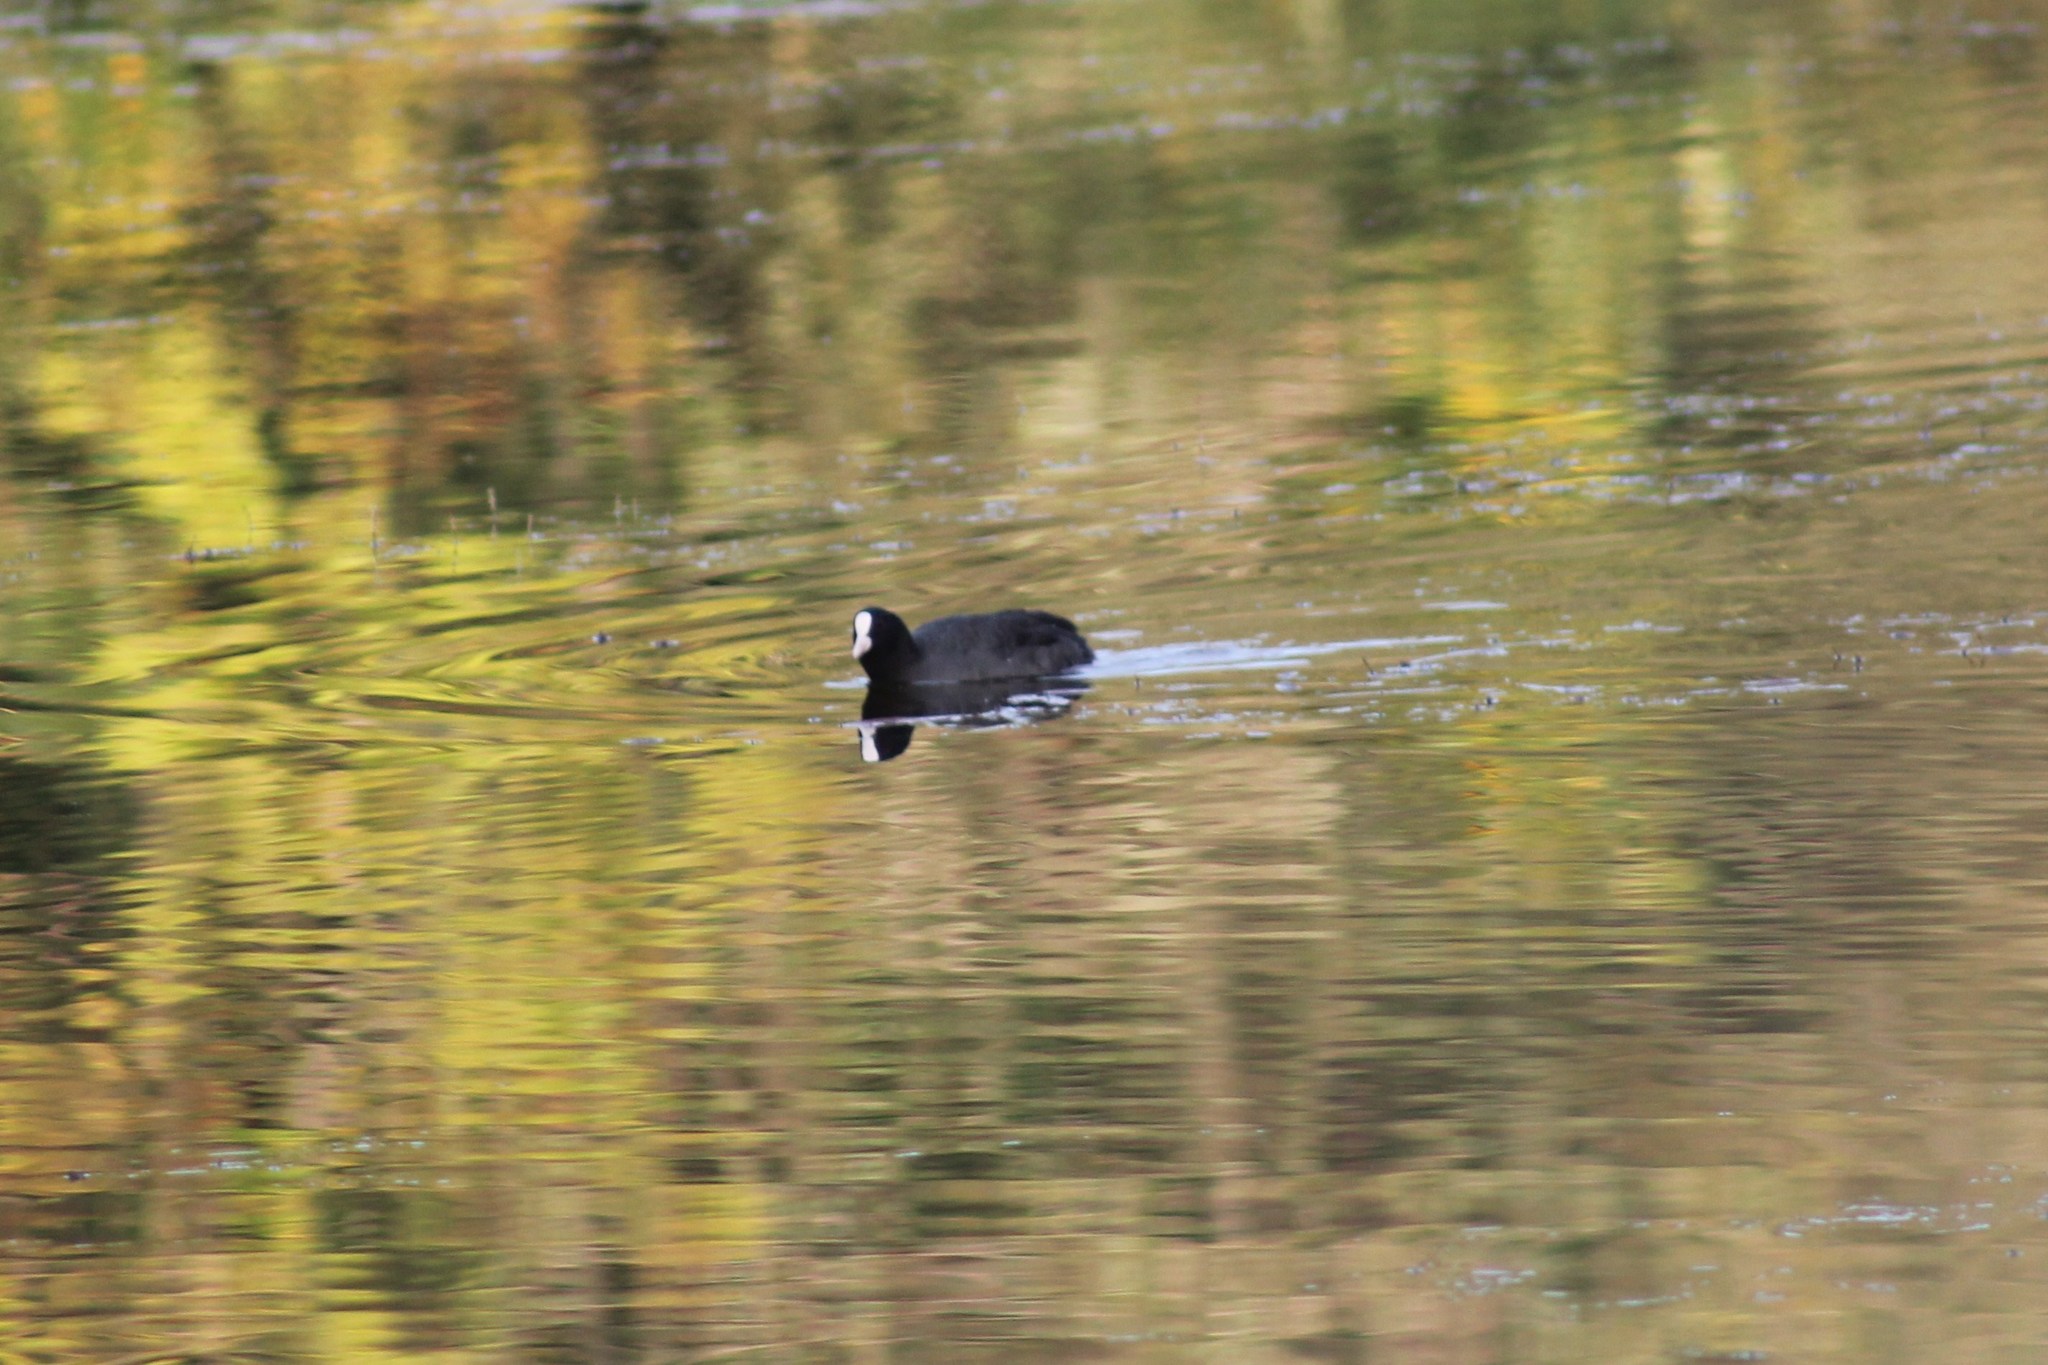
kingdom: Animalia
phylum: Chordata
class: Aves
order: Gruiformes
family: Rallidae
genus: Fulica
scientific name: Fulica atra
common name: Eurasian coot
